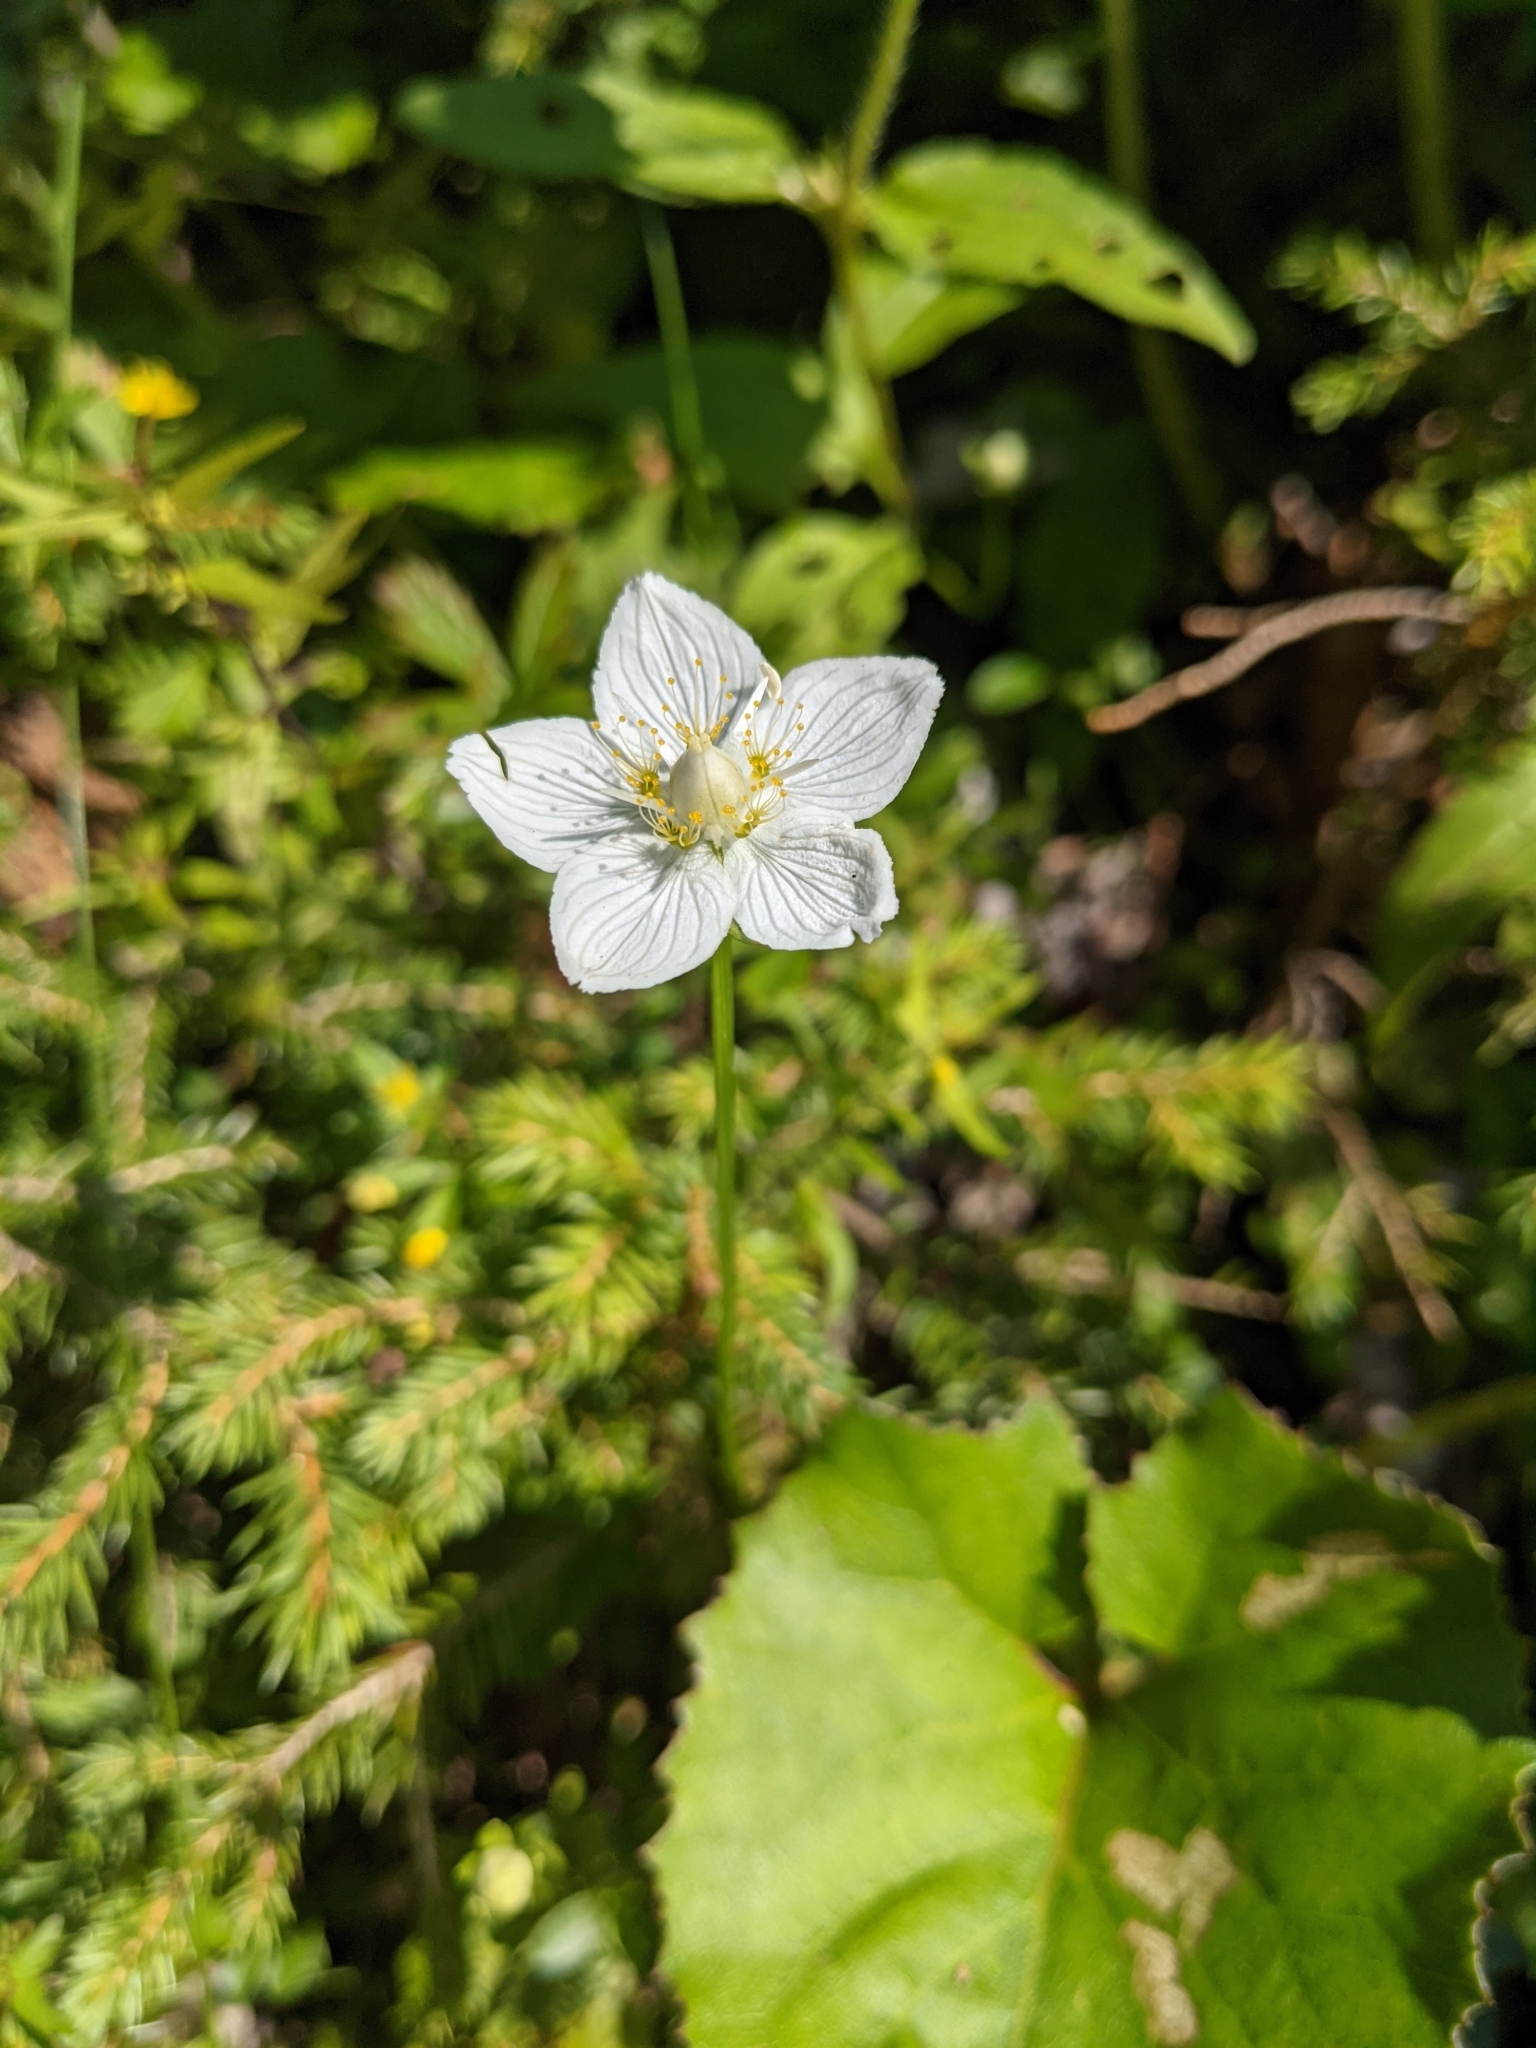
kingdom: Plantae
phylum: Tracheophyta
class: Magnoliopsida
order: Celastrales
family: Parnassiaceae
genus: Parnassia
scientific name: Parnassia palustris
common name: Grass-of-parnassus
